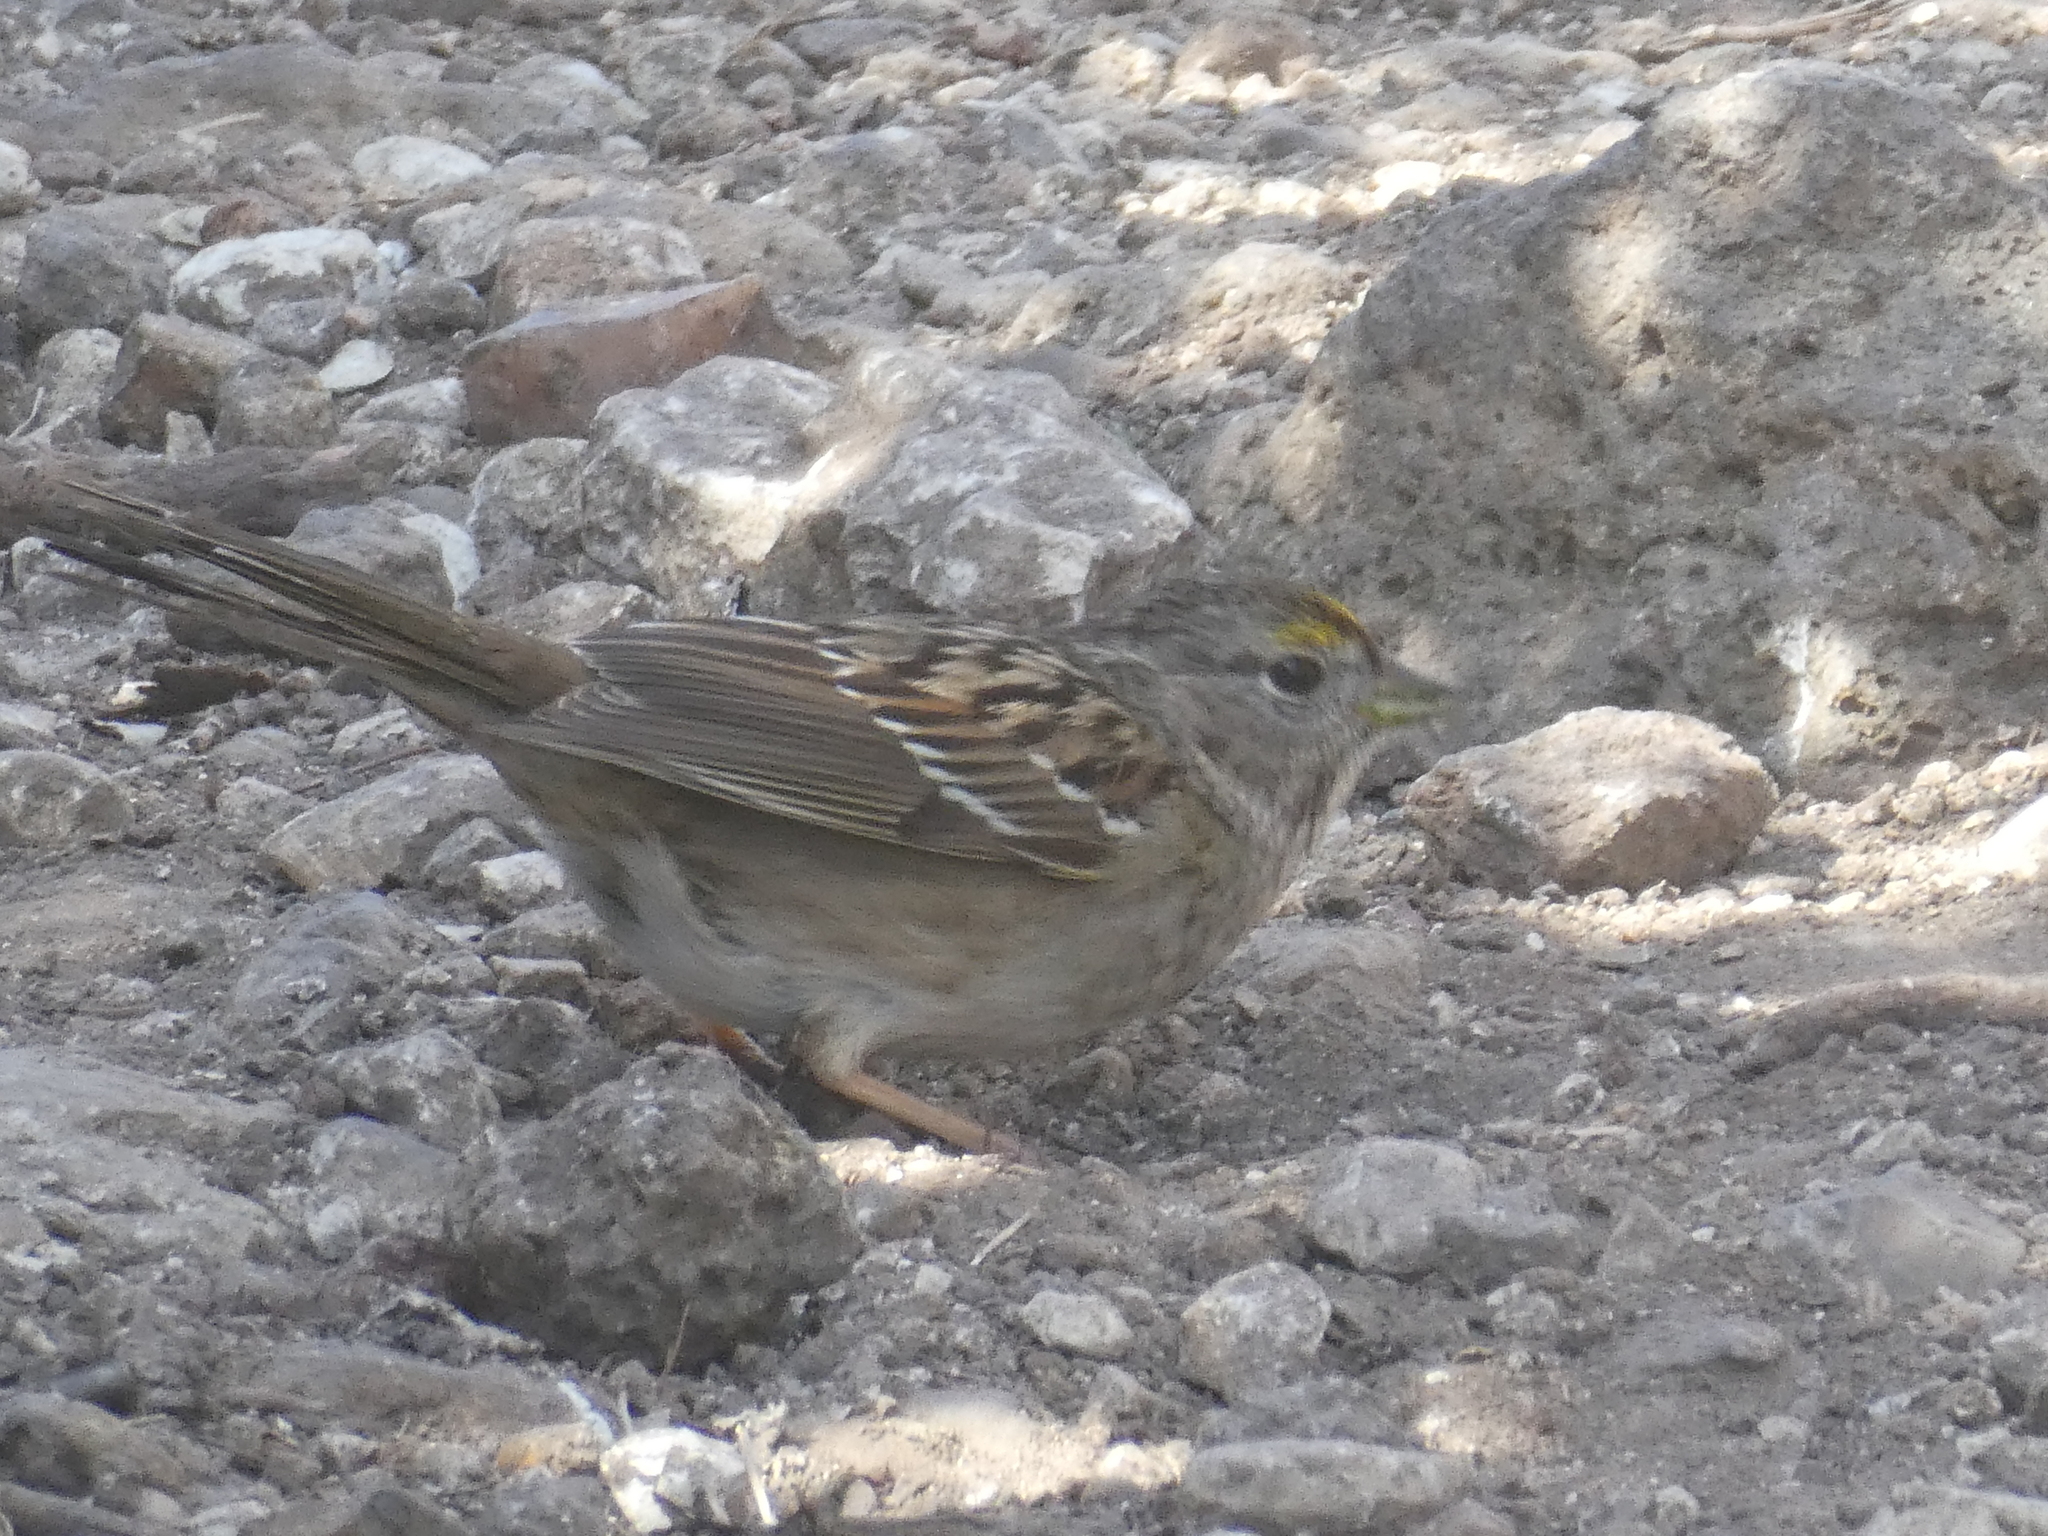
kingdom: Animalia
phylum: Chordata
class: Aves
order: Passeriformes
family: Passerellidae
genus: Zonotrichia
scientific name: Zonotrichia atricapilla
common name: Golden-crowned sparrow
